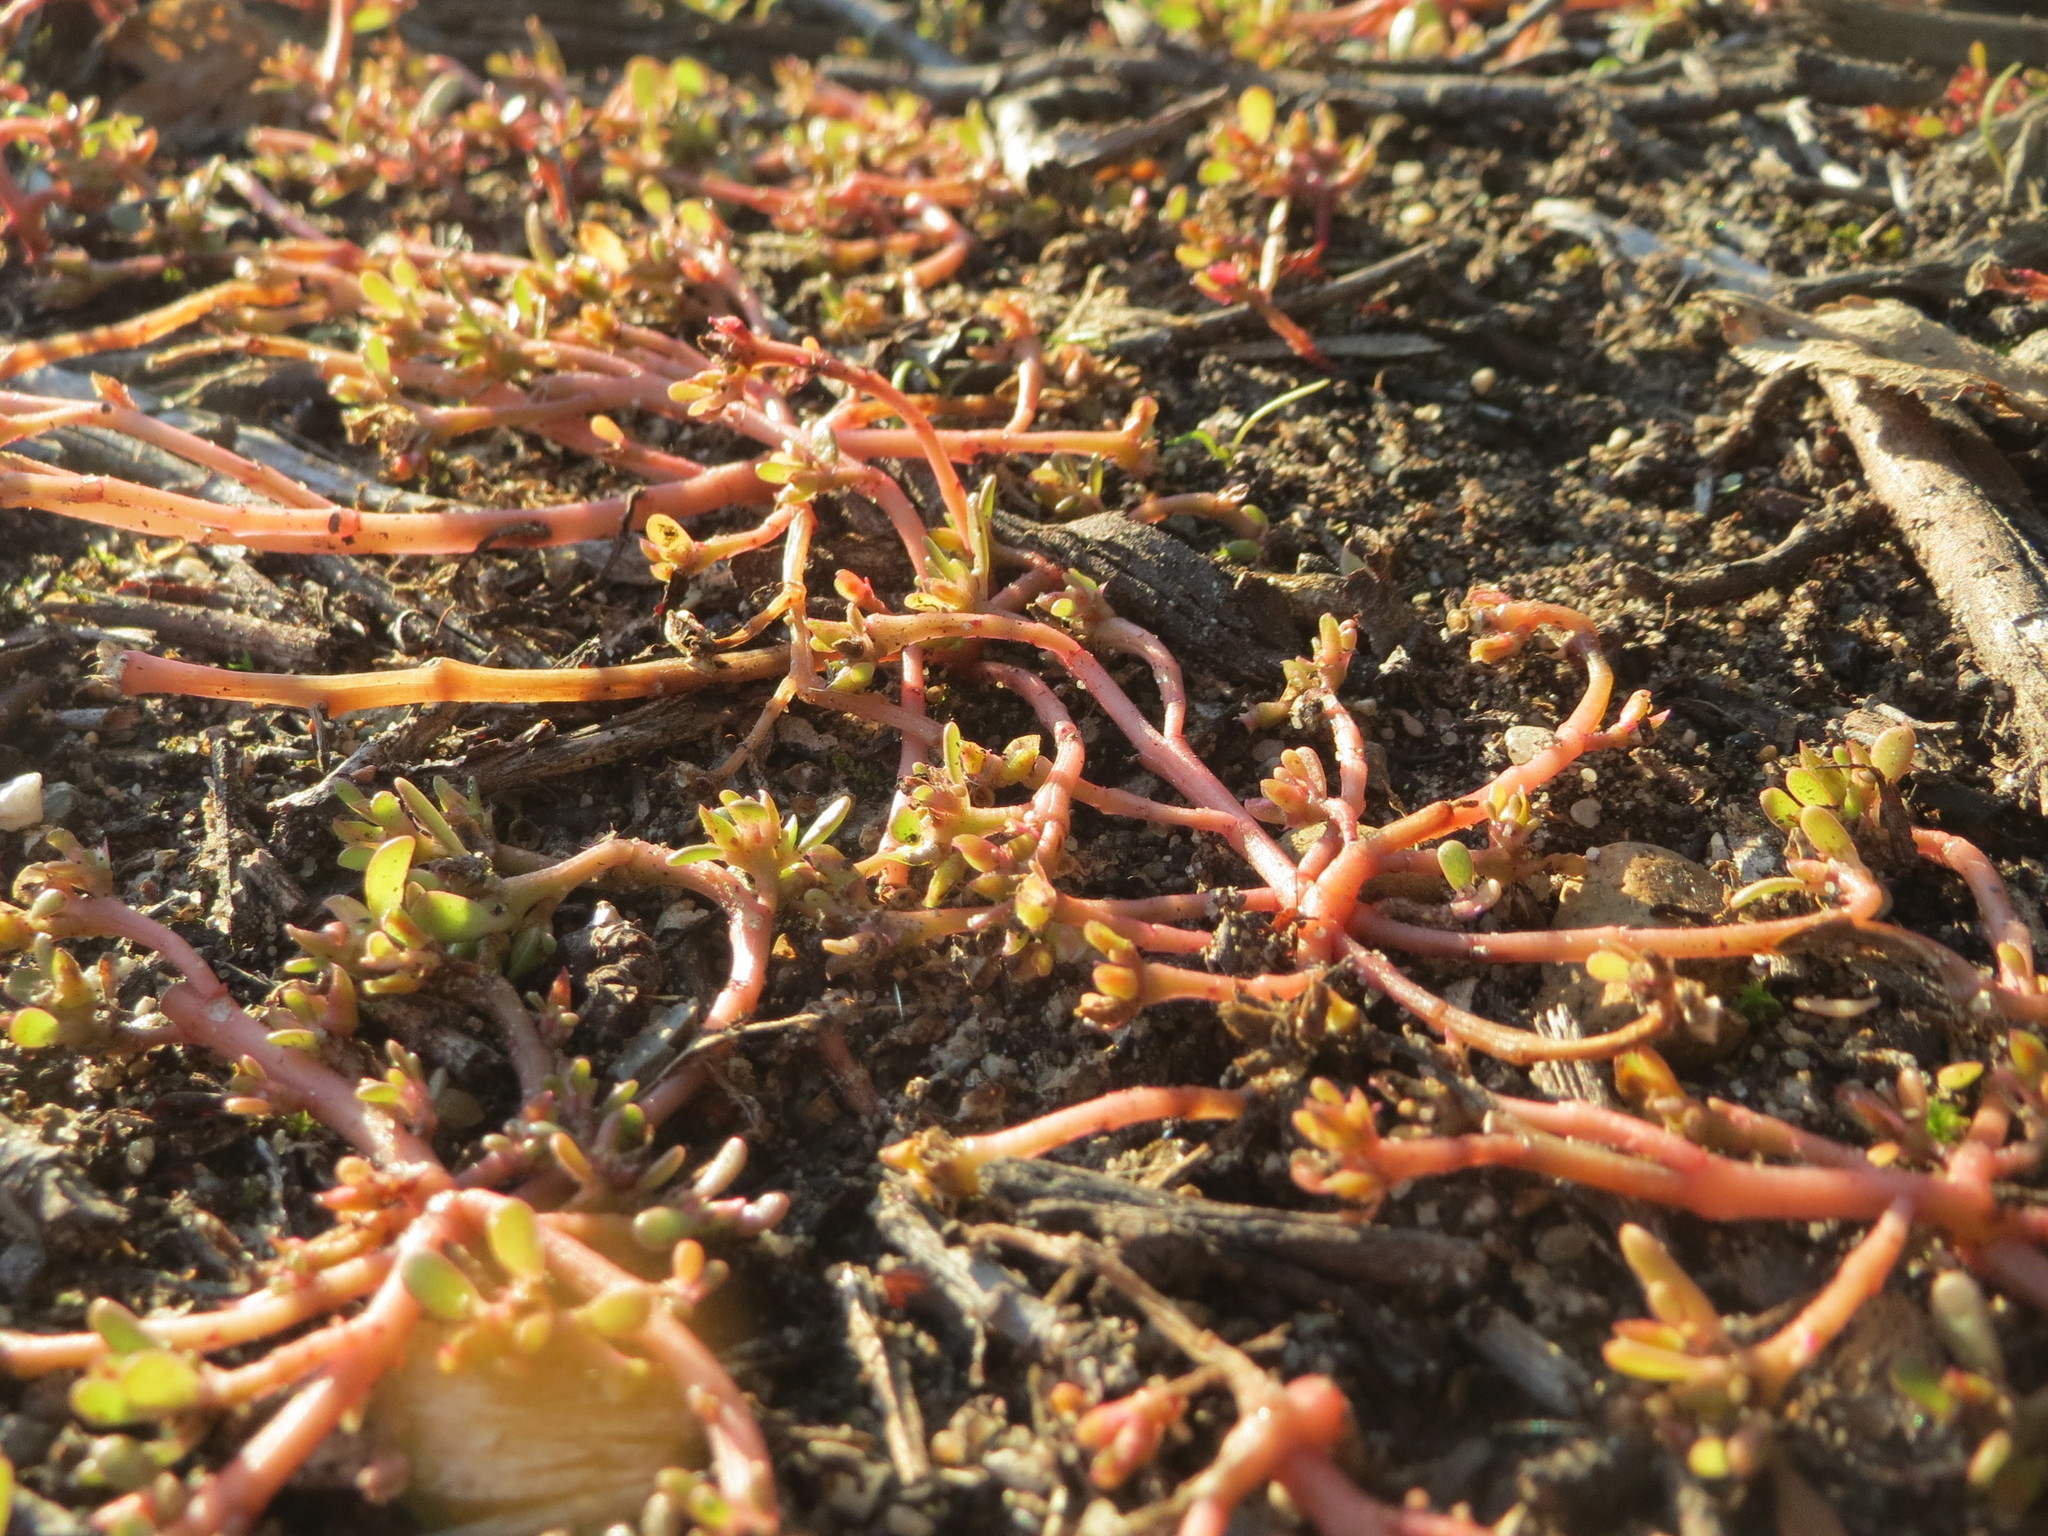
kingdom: Plantae
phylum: Tracheophyta
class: Magnoliopsida
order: Caryophyllales
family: Portulacaceae
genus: Portulaca
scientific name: Portulaca oleracea
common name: Common purslane
